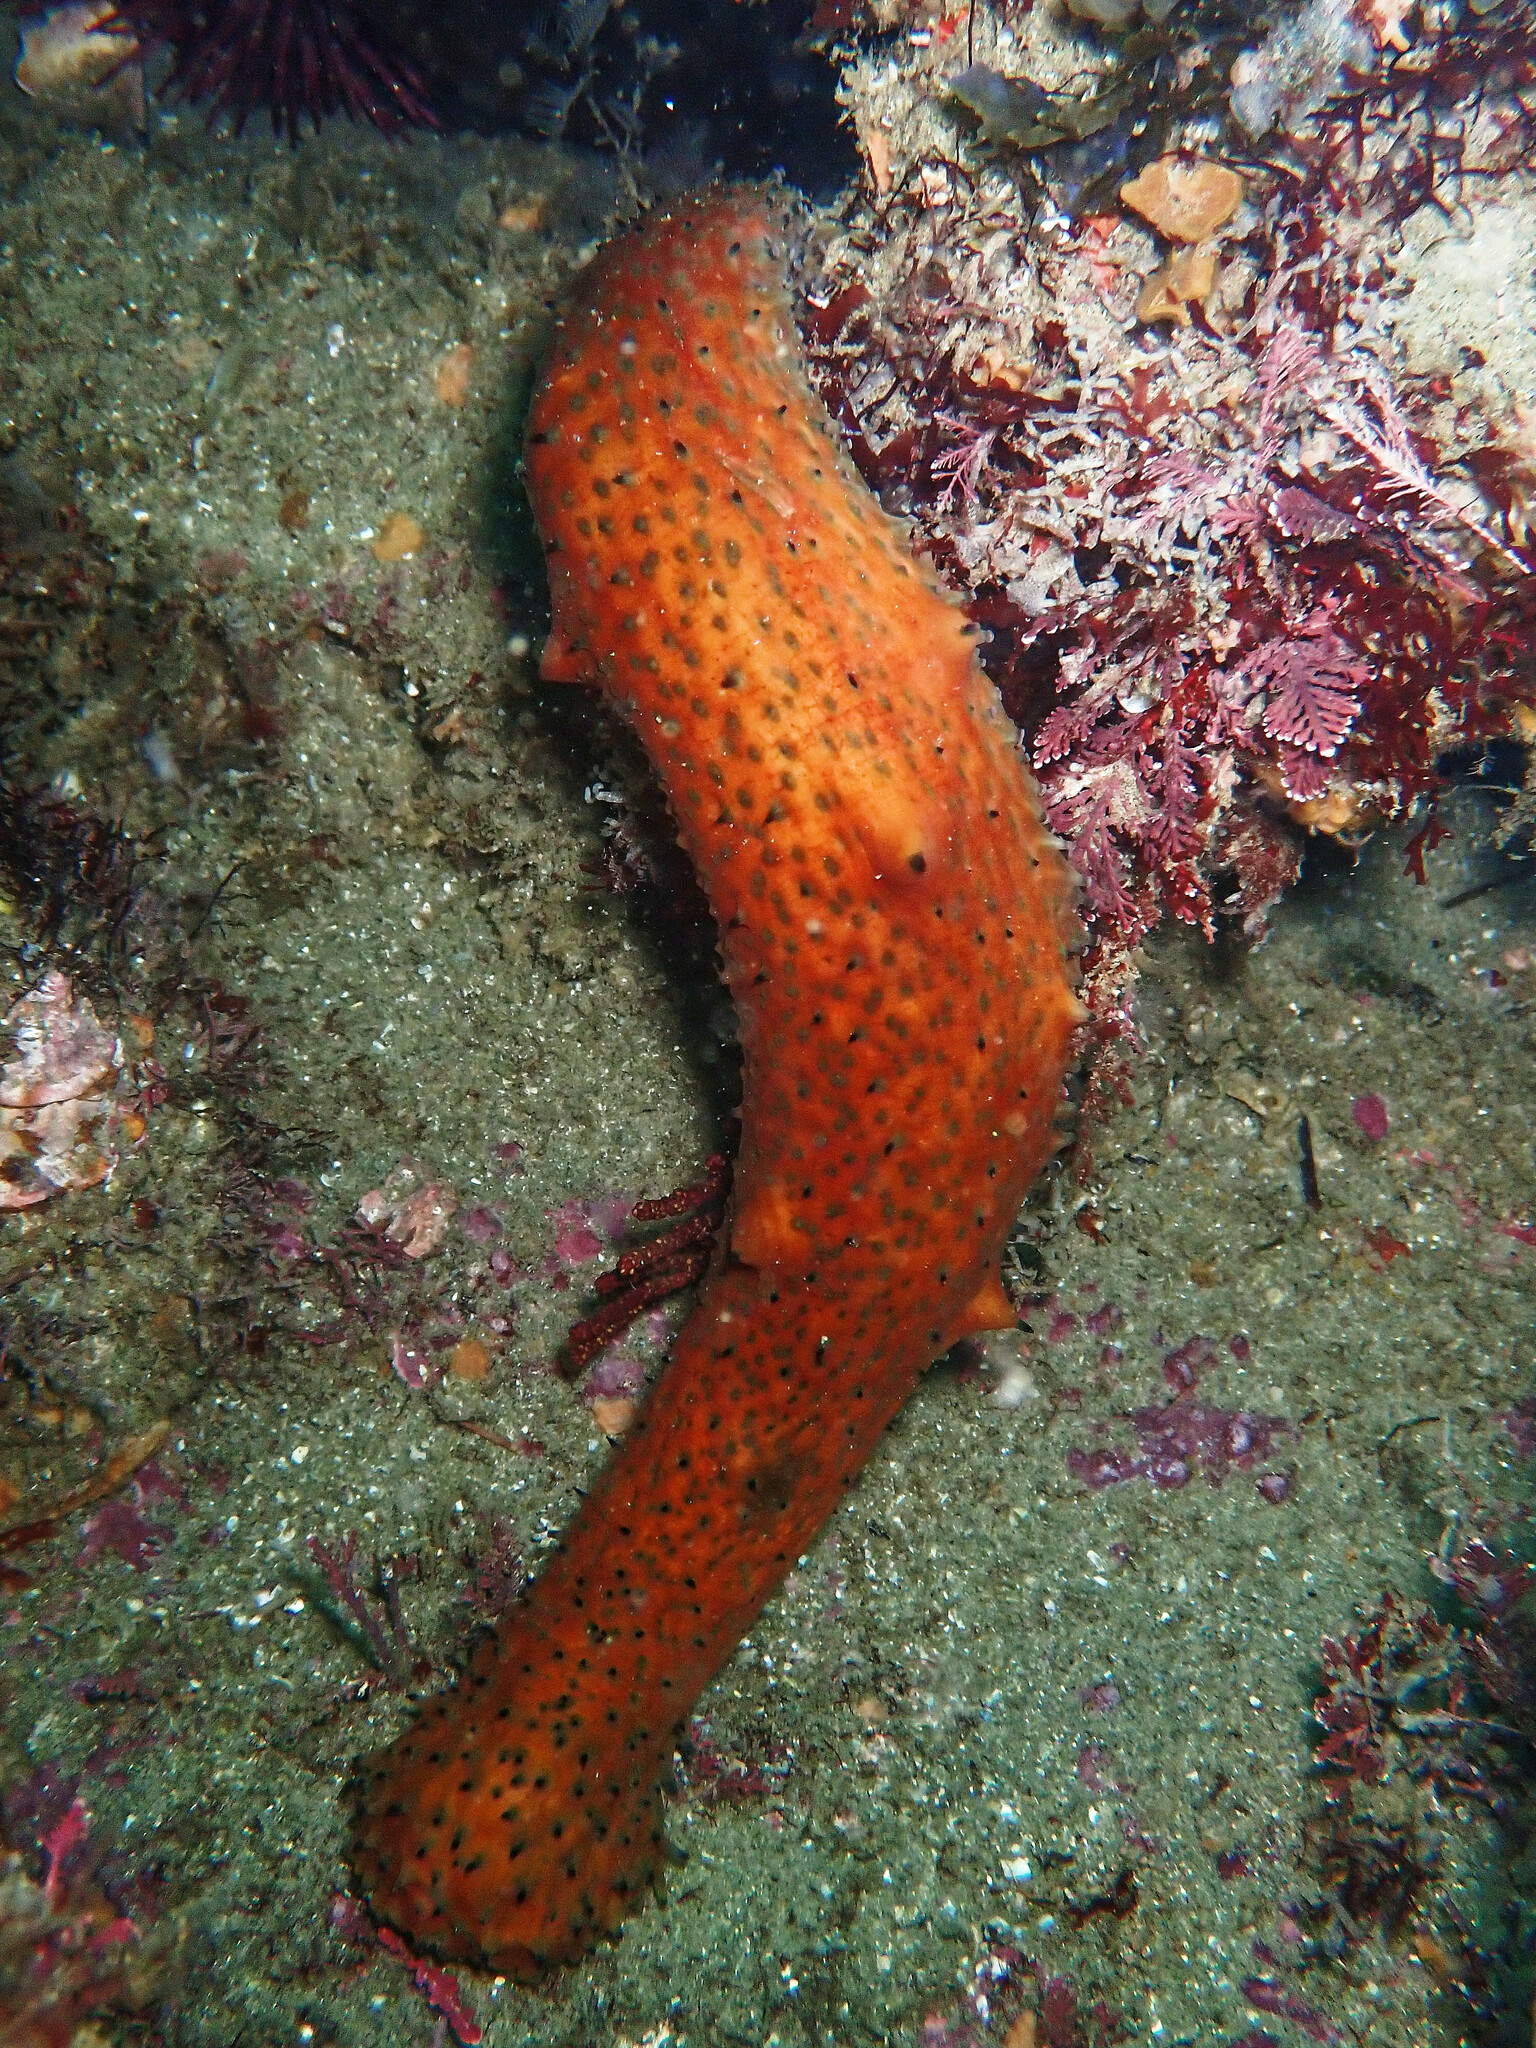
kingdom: Animalia
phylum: Echinodermata
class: Holothuroidea
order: Synallactida
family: Stichopodidae
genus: Apostichopus
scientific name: Apostichopus parvimensis
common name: Warty sea cucumber
